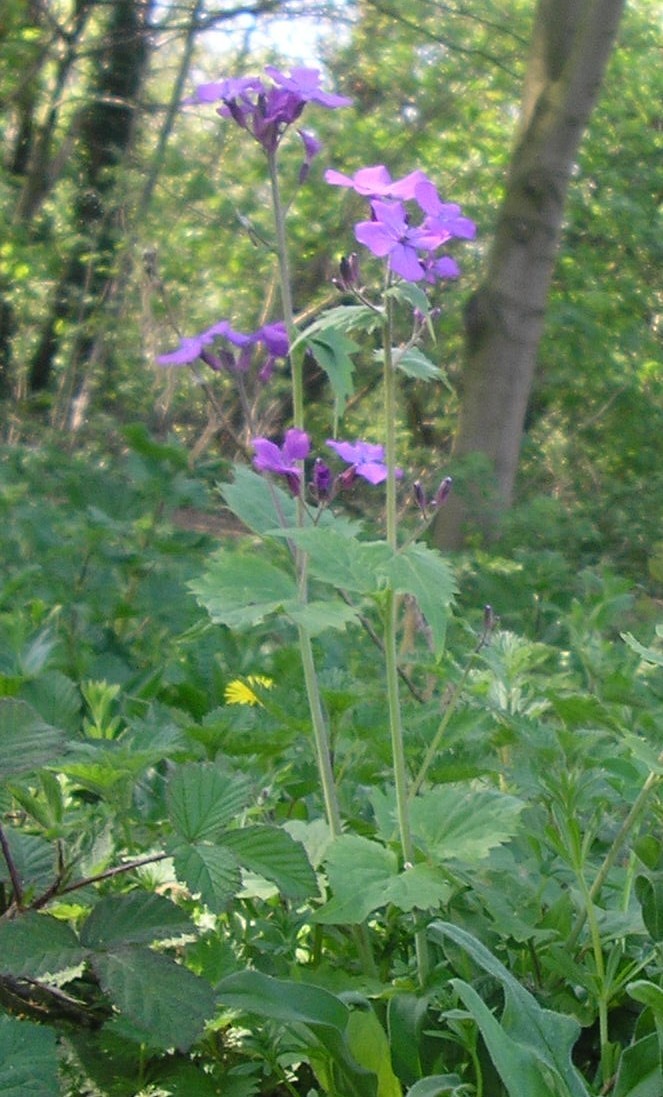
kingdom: Plantae
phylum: Tracheophyta
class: Magnoliopsida
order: Brassicales
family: Brassicaceae
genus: Lunaria
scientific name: Lunaria annua
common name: Honesty
